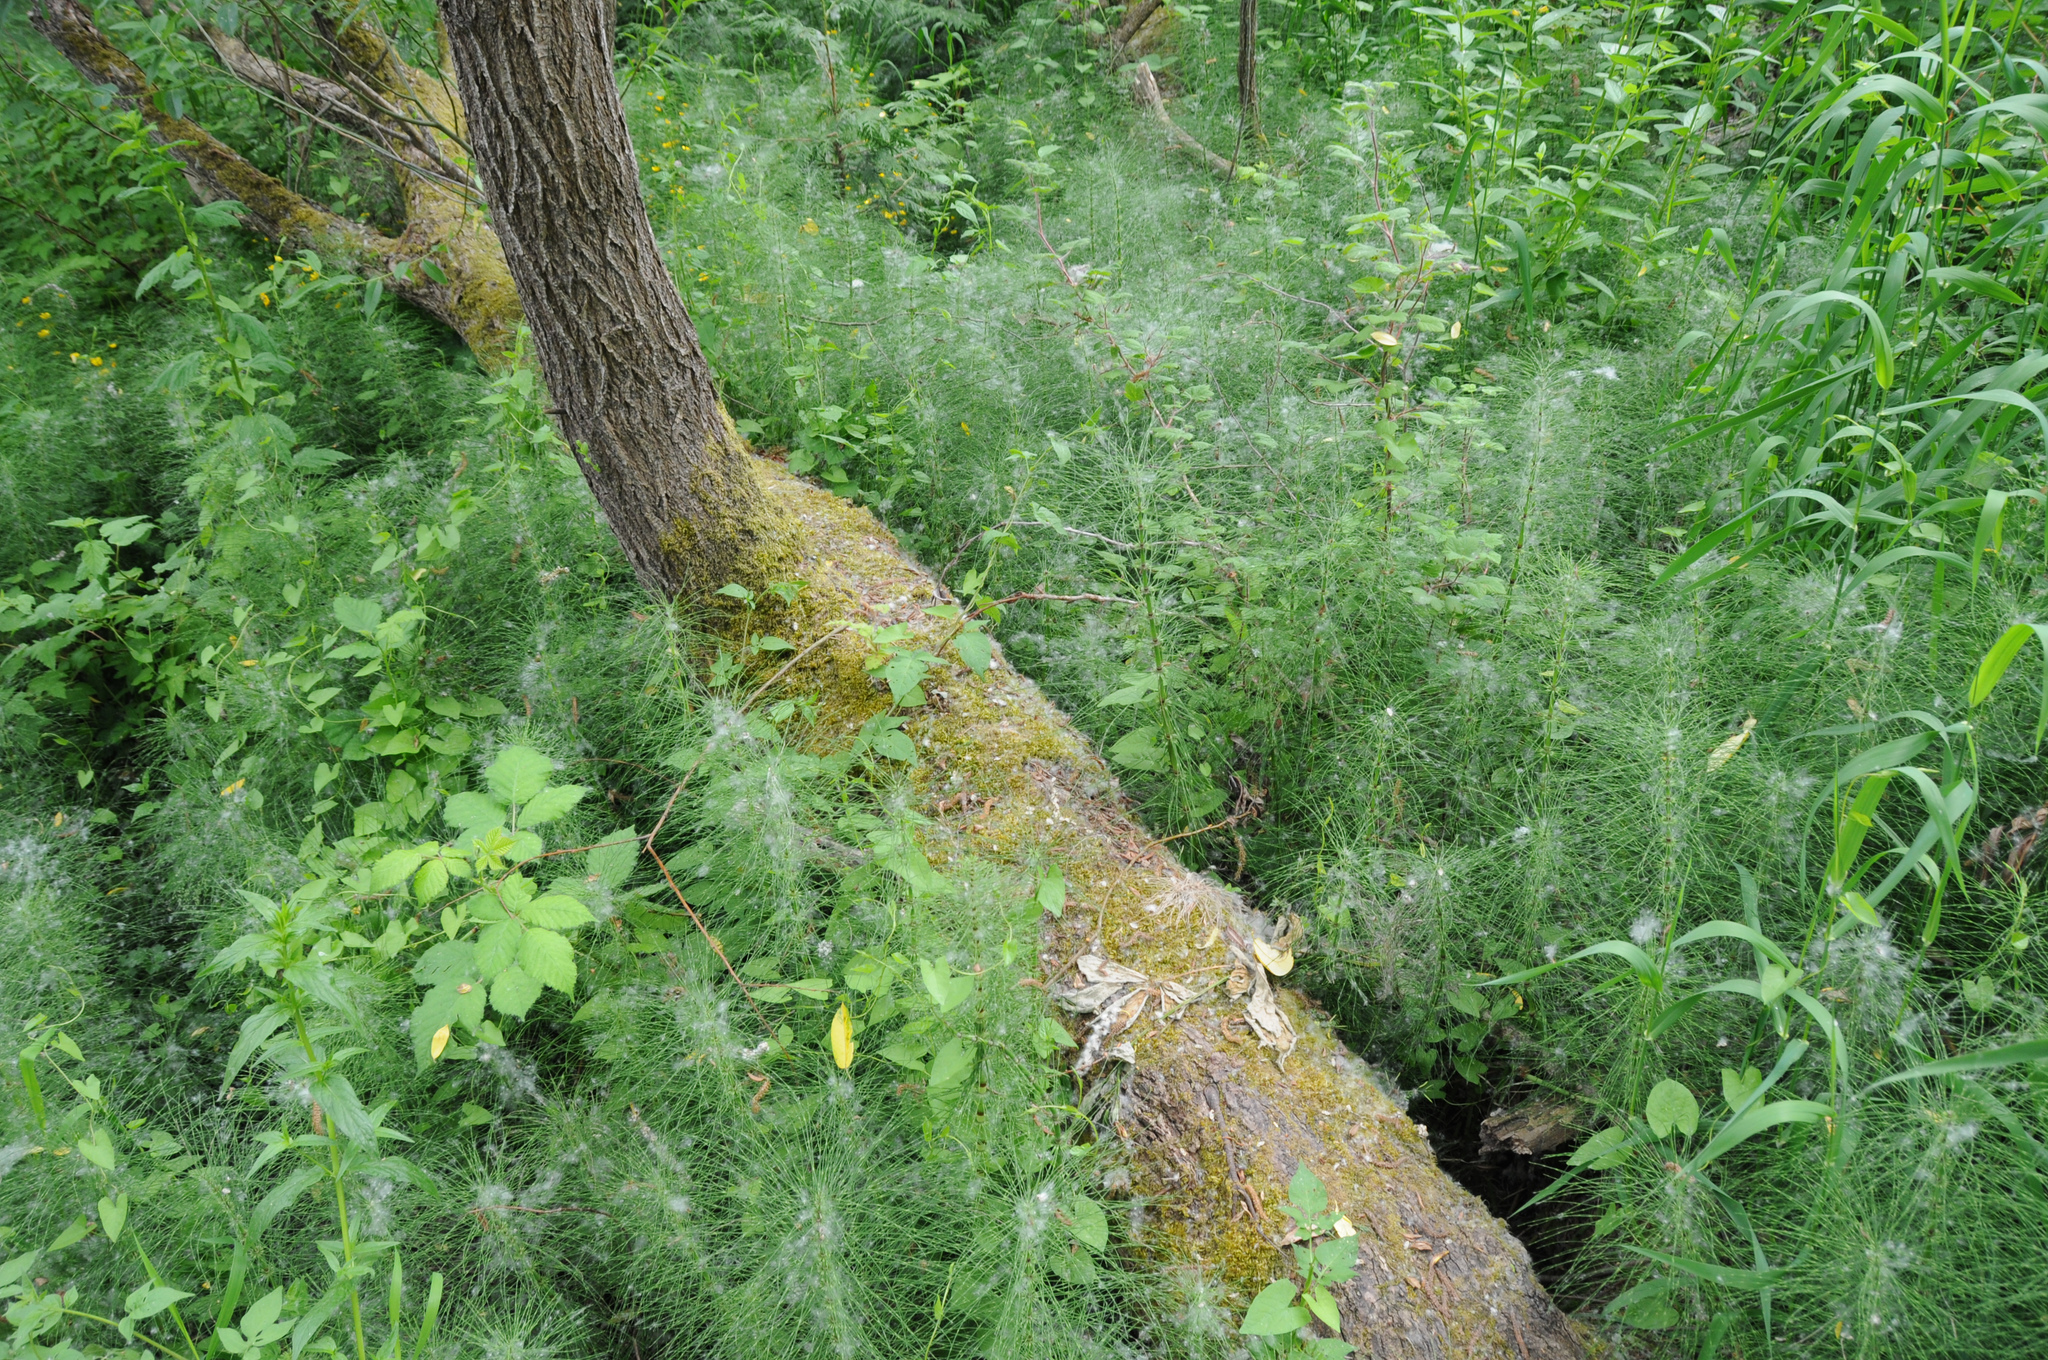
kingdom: Plantae
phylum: Tracheophyta
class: Polypodiopsida
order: Equisetales
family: Equisetaceae
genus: Equisetum
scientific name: Equisetum braunii
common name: Braun's horsetail
